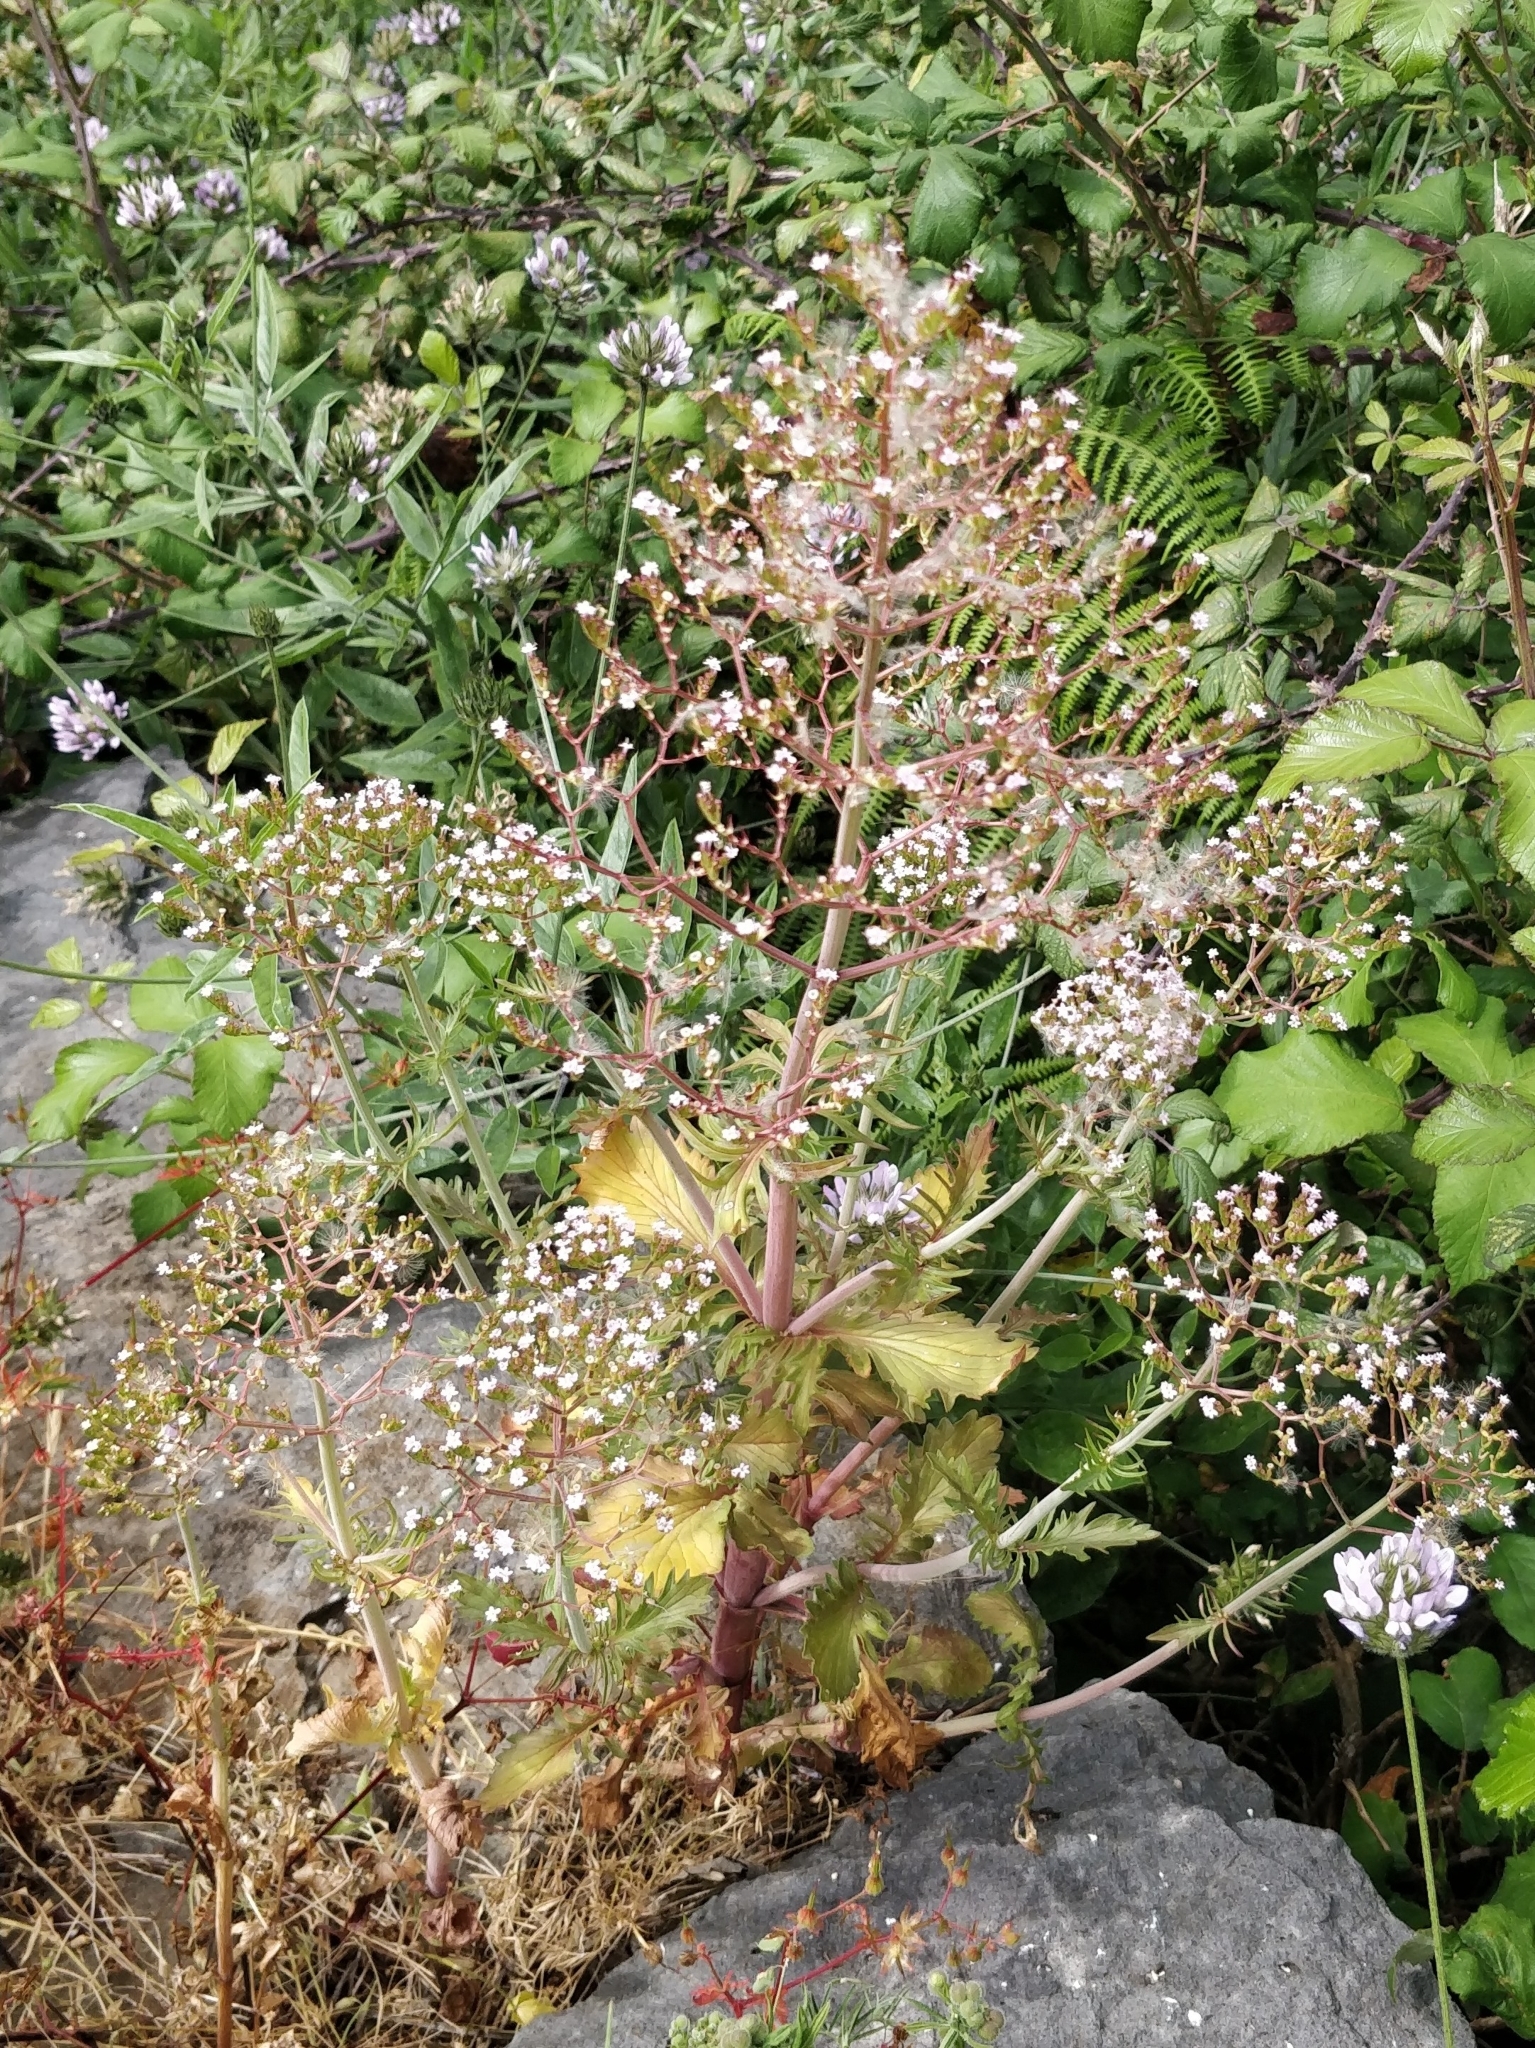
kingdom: Plantae
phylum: Tracheophyta
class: Magnoliopsida
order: Dipsacales
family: Caprifoliaceae
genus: Centranthus
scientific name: Centranthus calcitrapae
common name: Annual valerian
